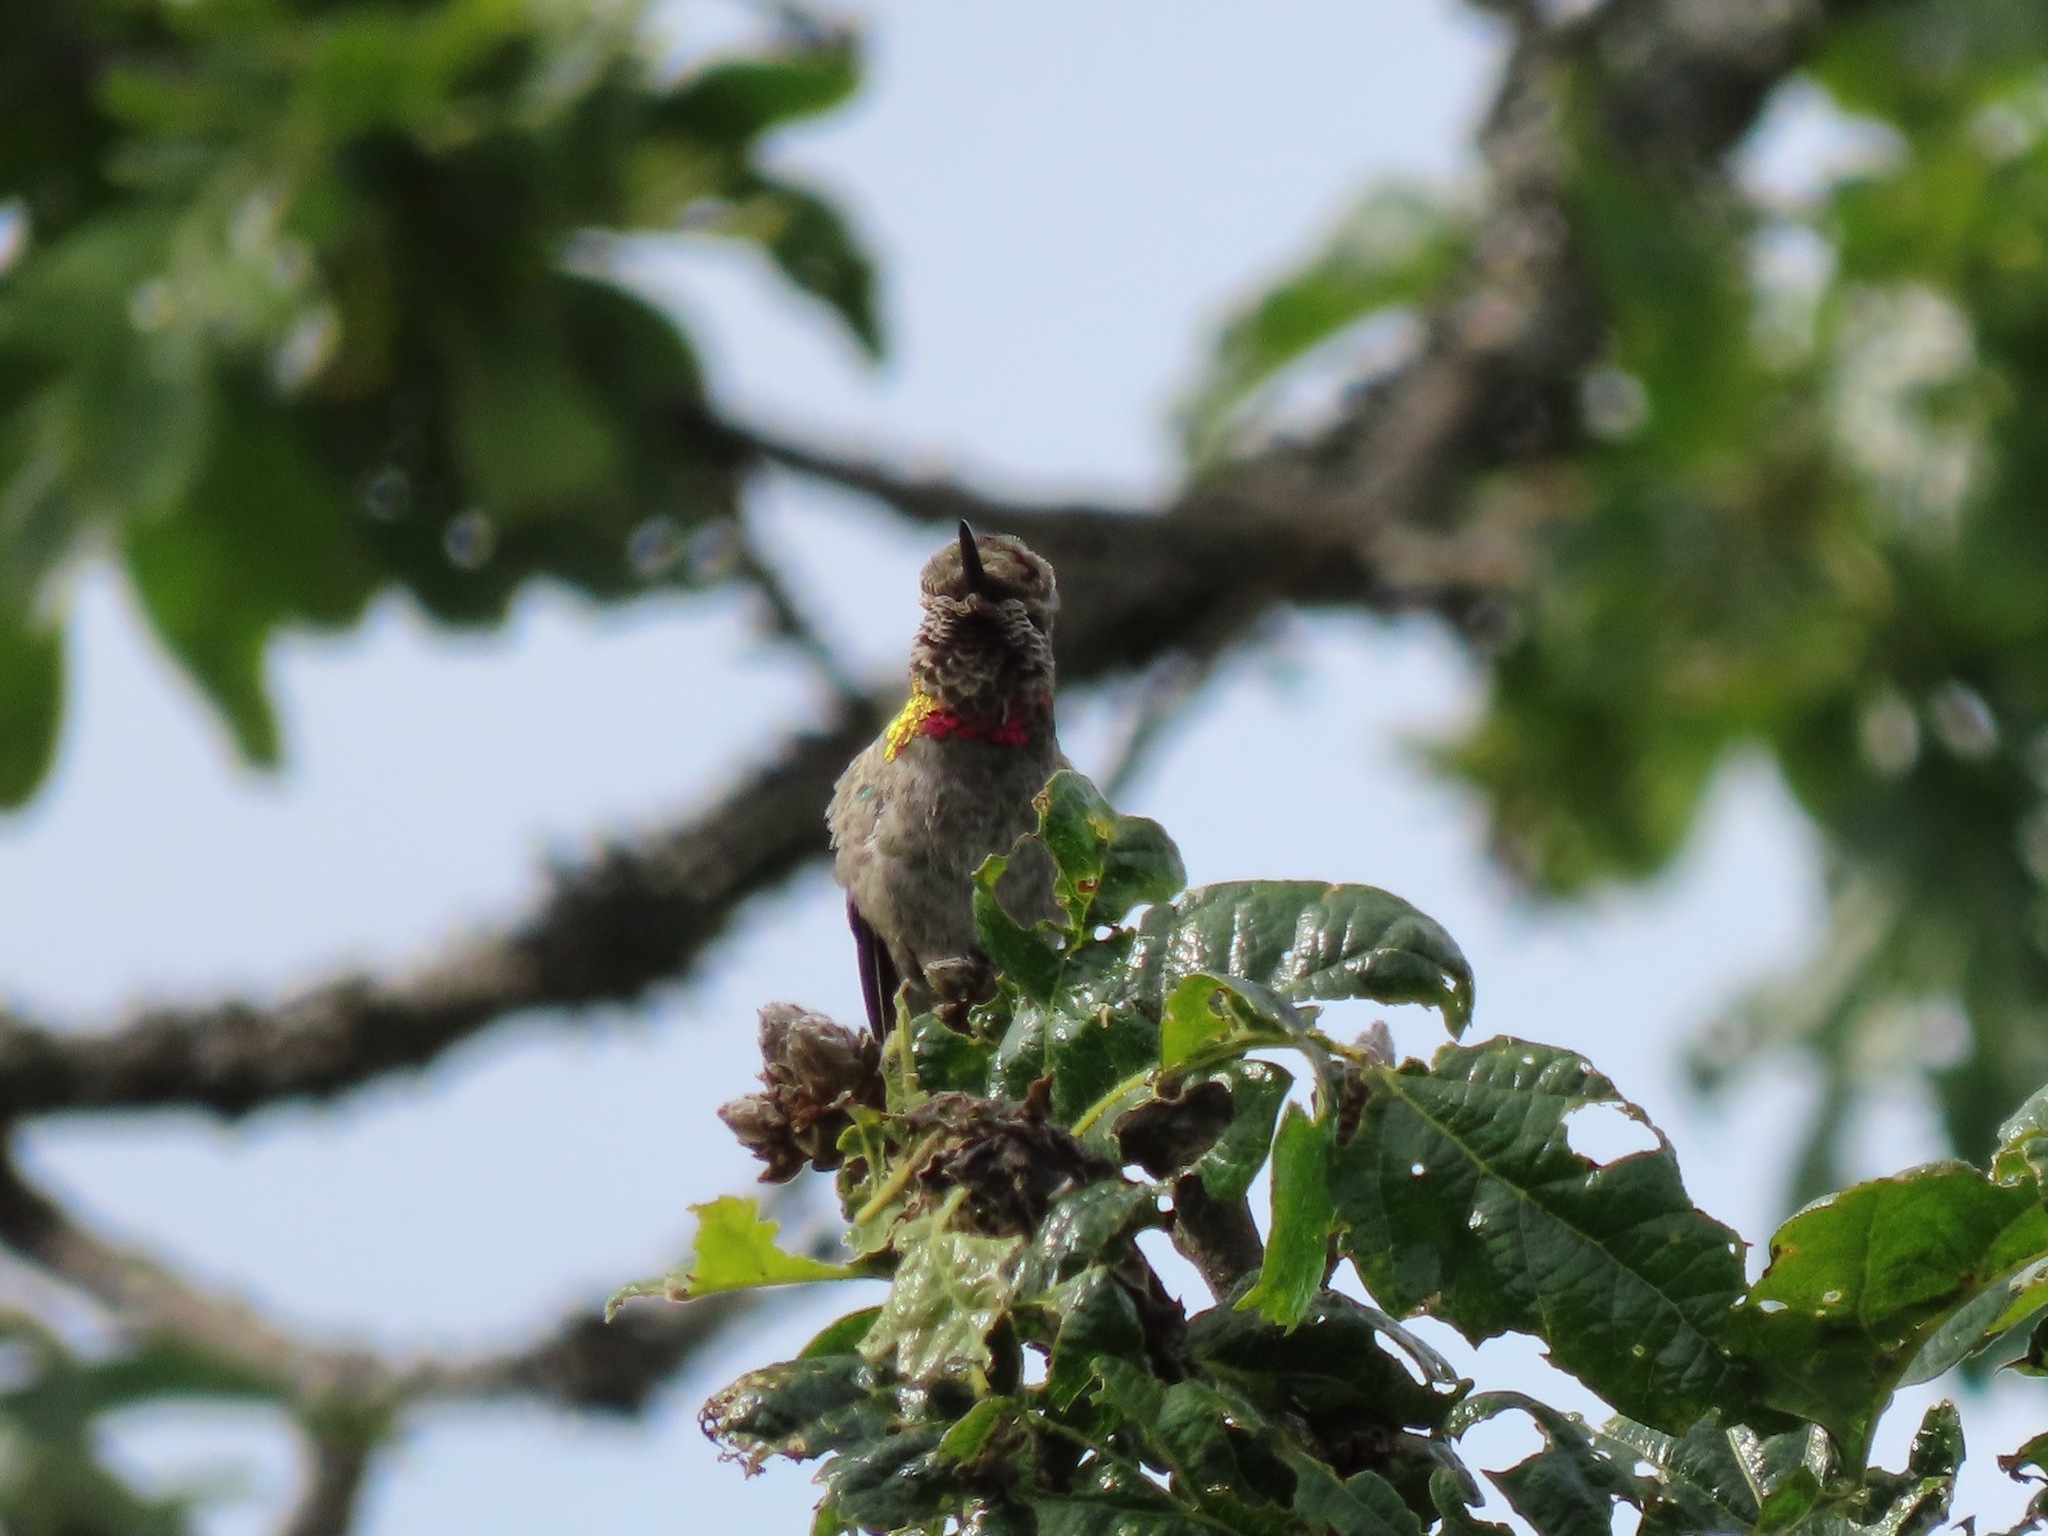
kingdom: Animalia
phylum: Chordata
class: Aves
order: Apodiformes
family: Trochilidae
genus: Calypte
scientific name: Calypte anna
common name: Anna's hummingbird
